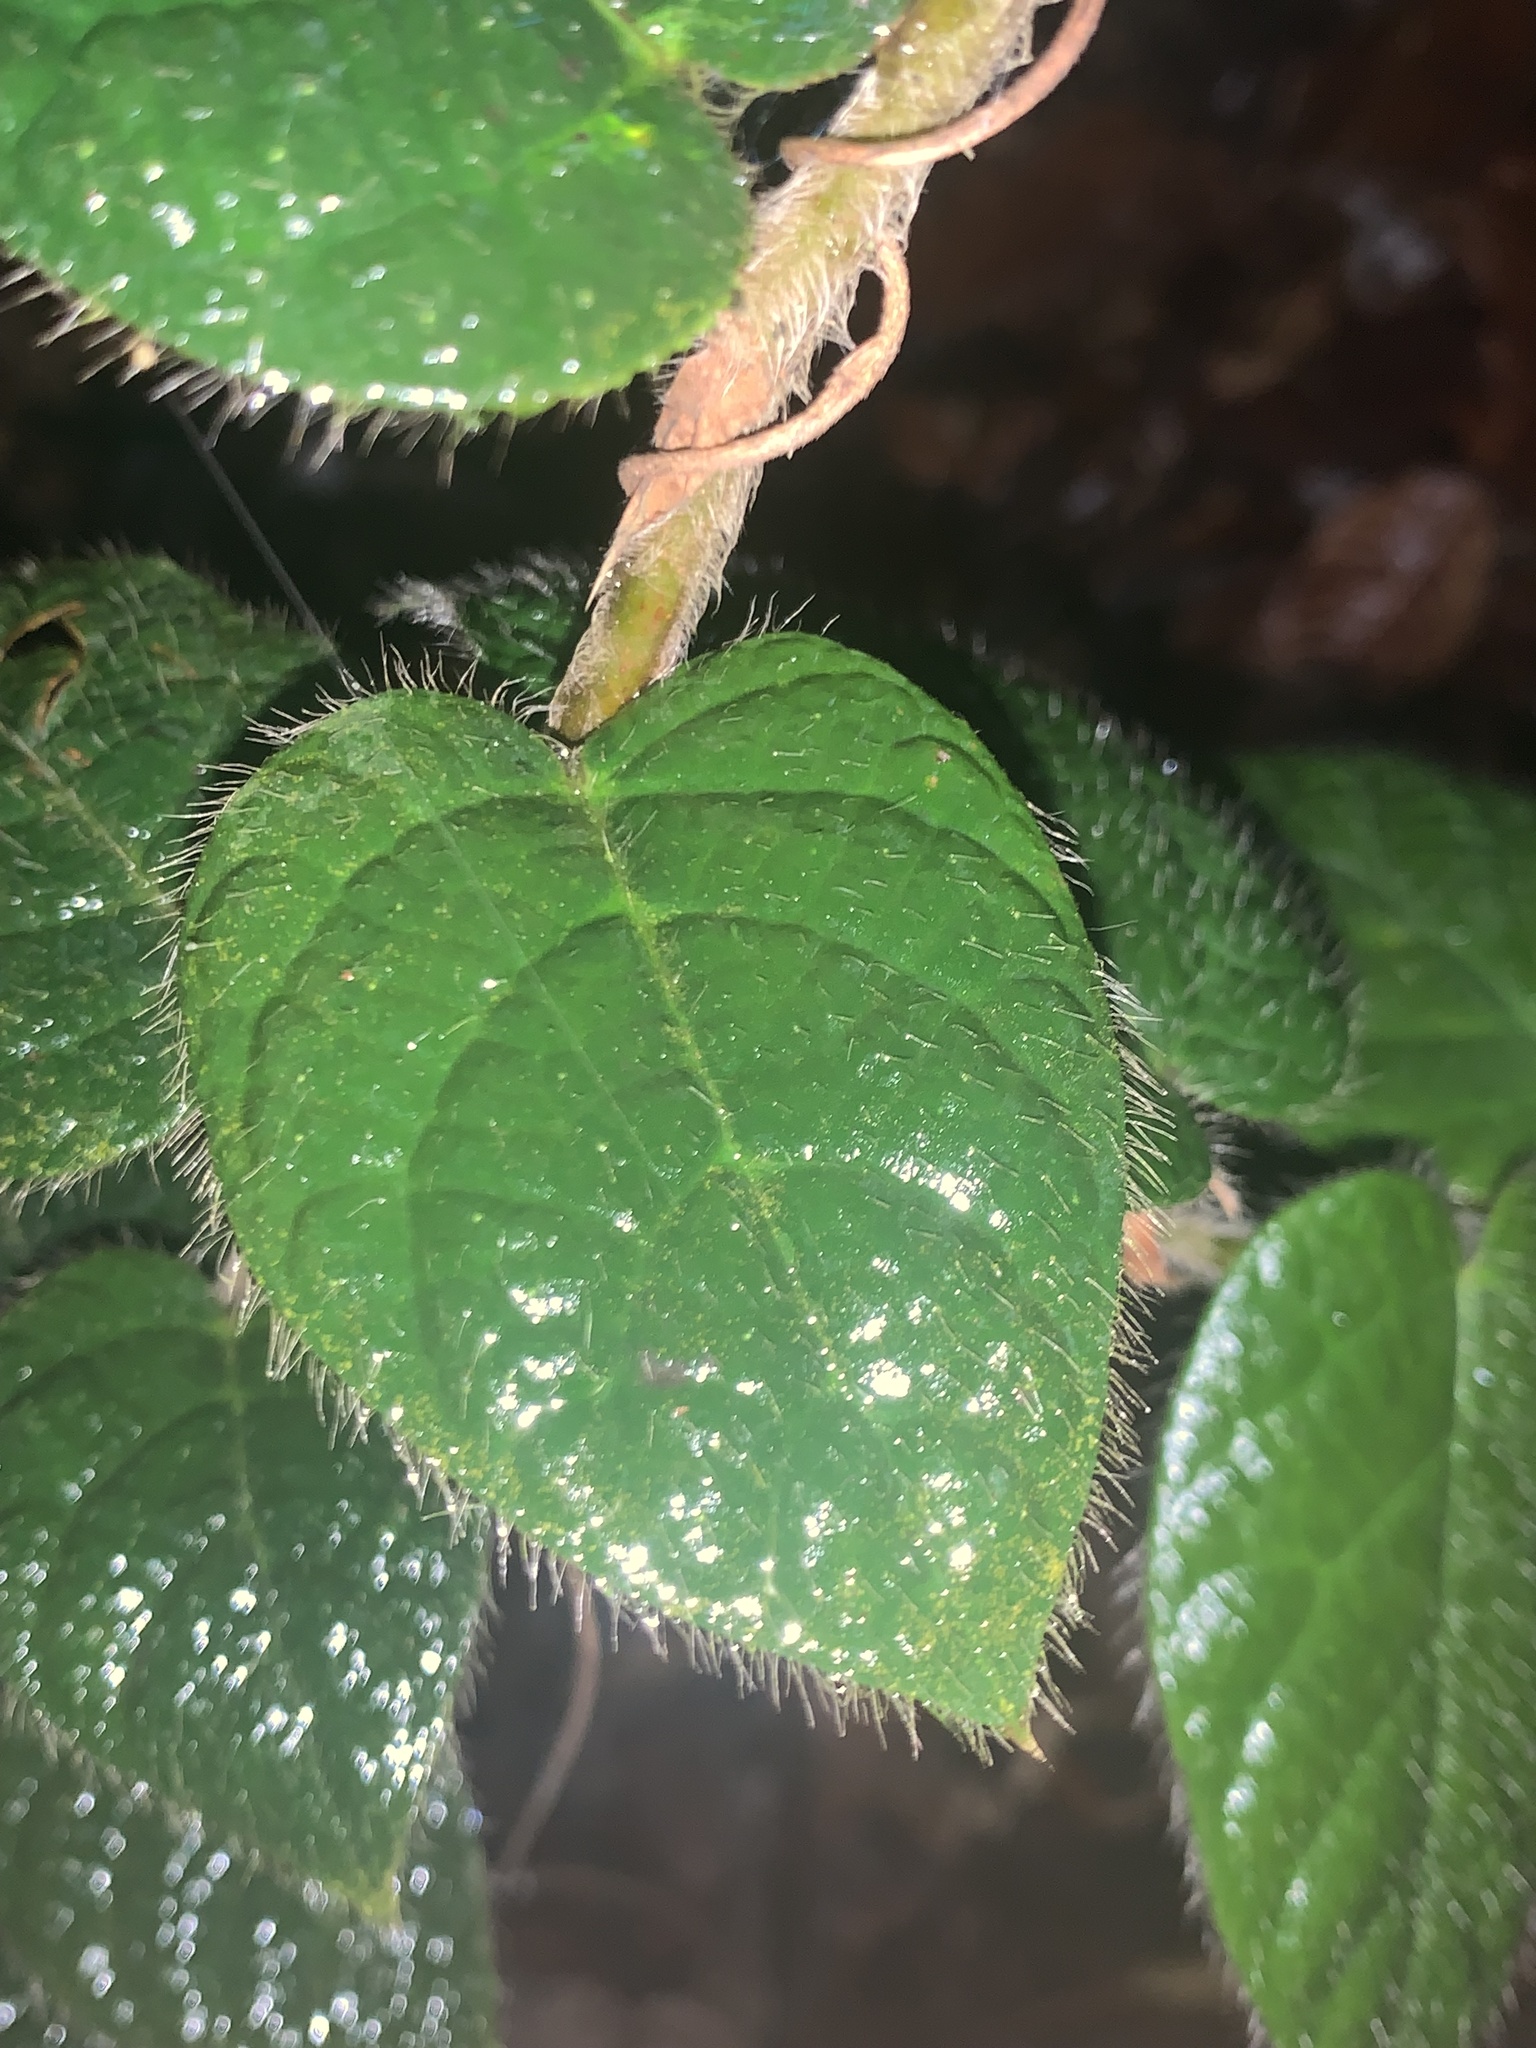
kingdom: Plantae
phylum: Tracheophyta
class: Magnoliopsida
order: Rosales
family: Moraceae
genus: Ficus
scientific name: Ficus villosa
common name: Villous fig
